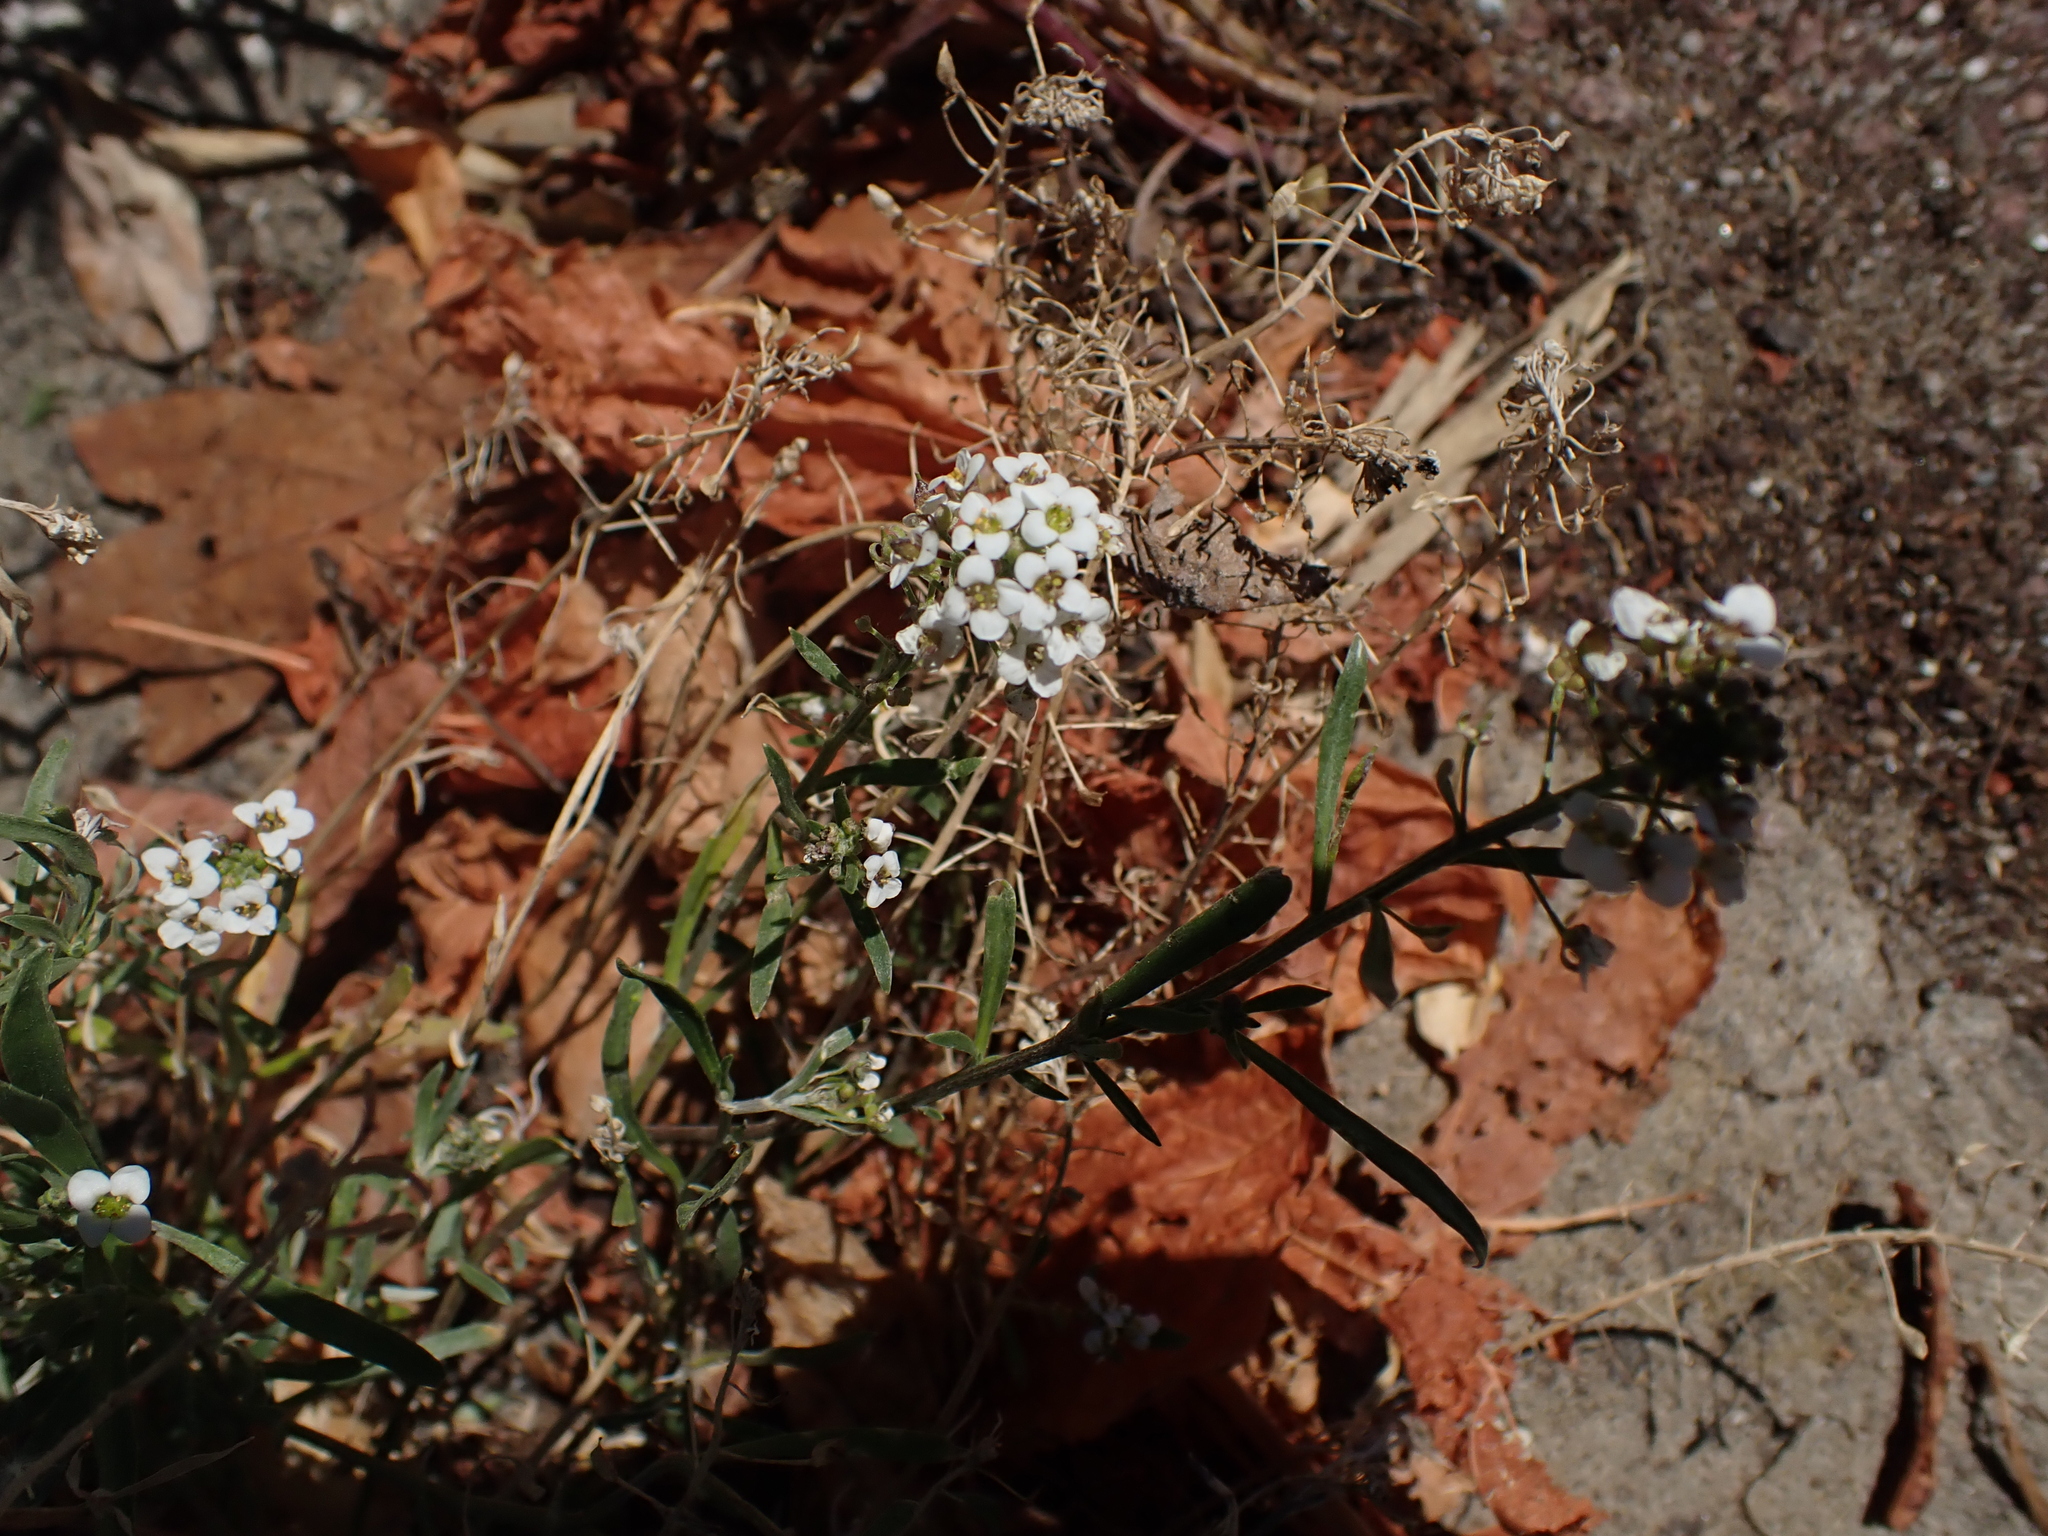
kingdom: Plantae
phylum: Tracheophyta
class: Magnoliopsida
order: Brassicales
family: Brassicaceae
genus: Lobularia
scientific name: Lobularia maritima
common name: Sweet alison
